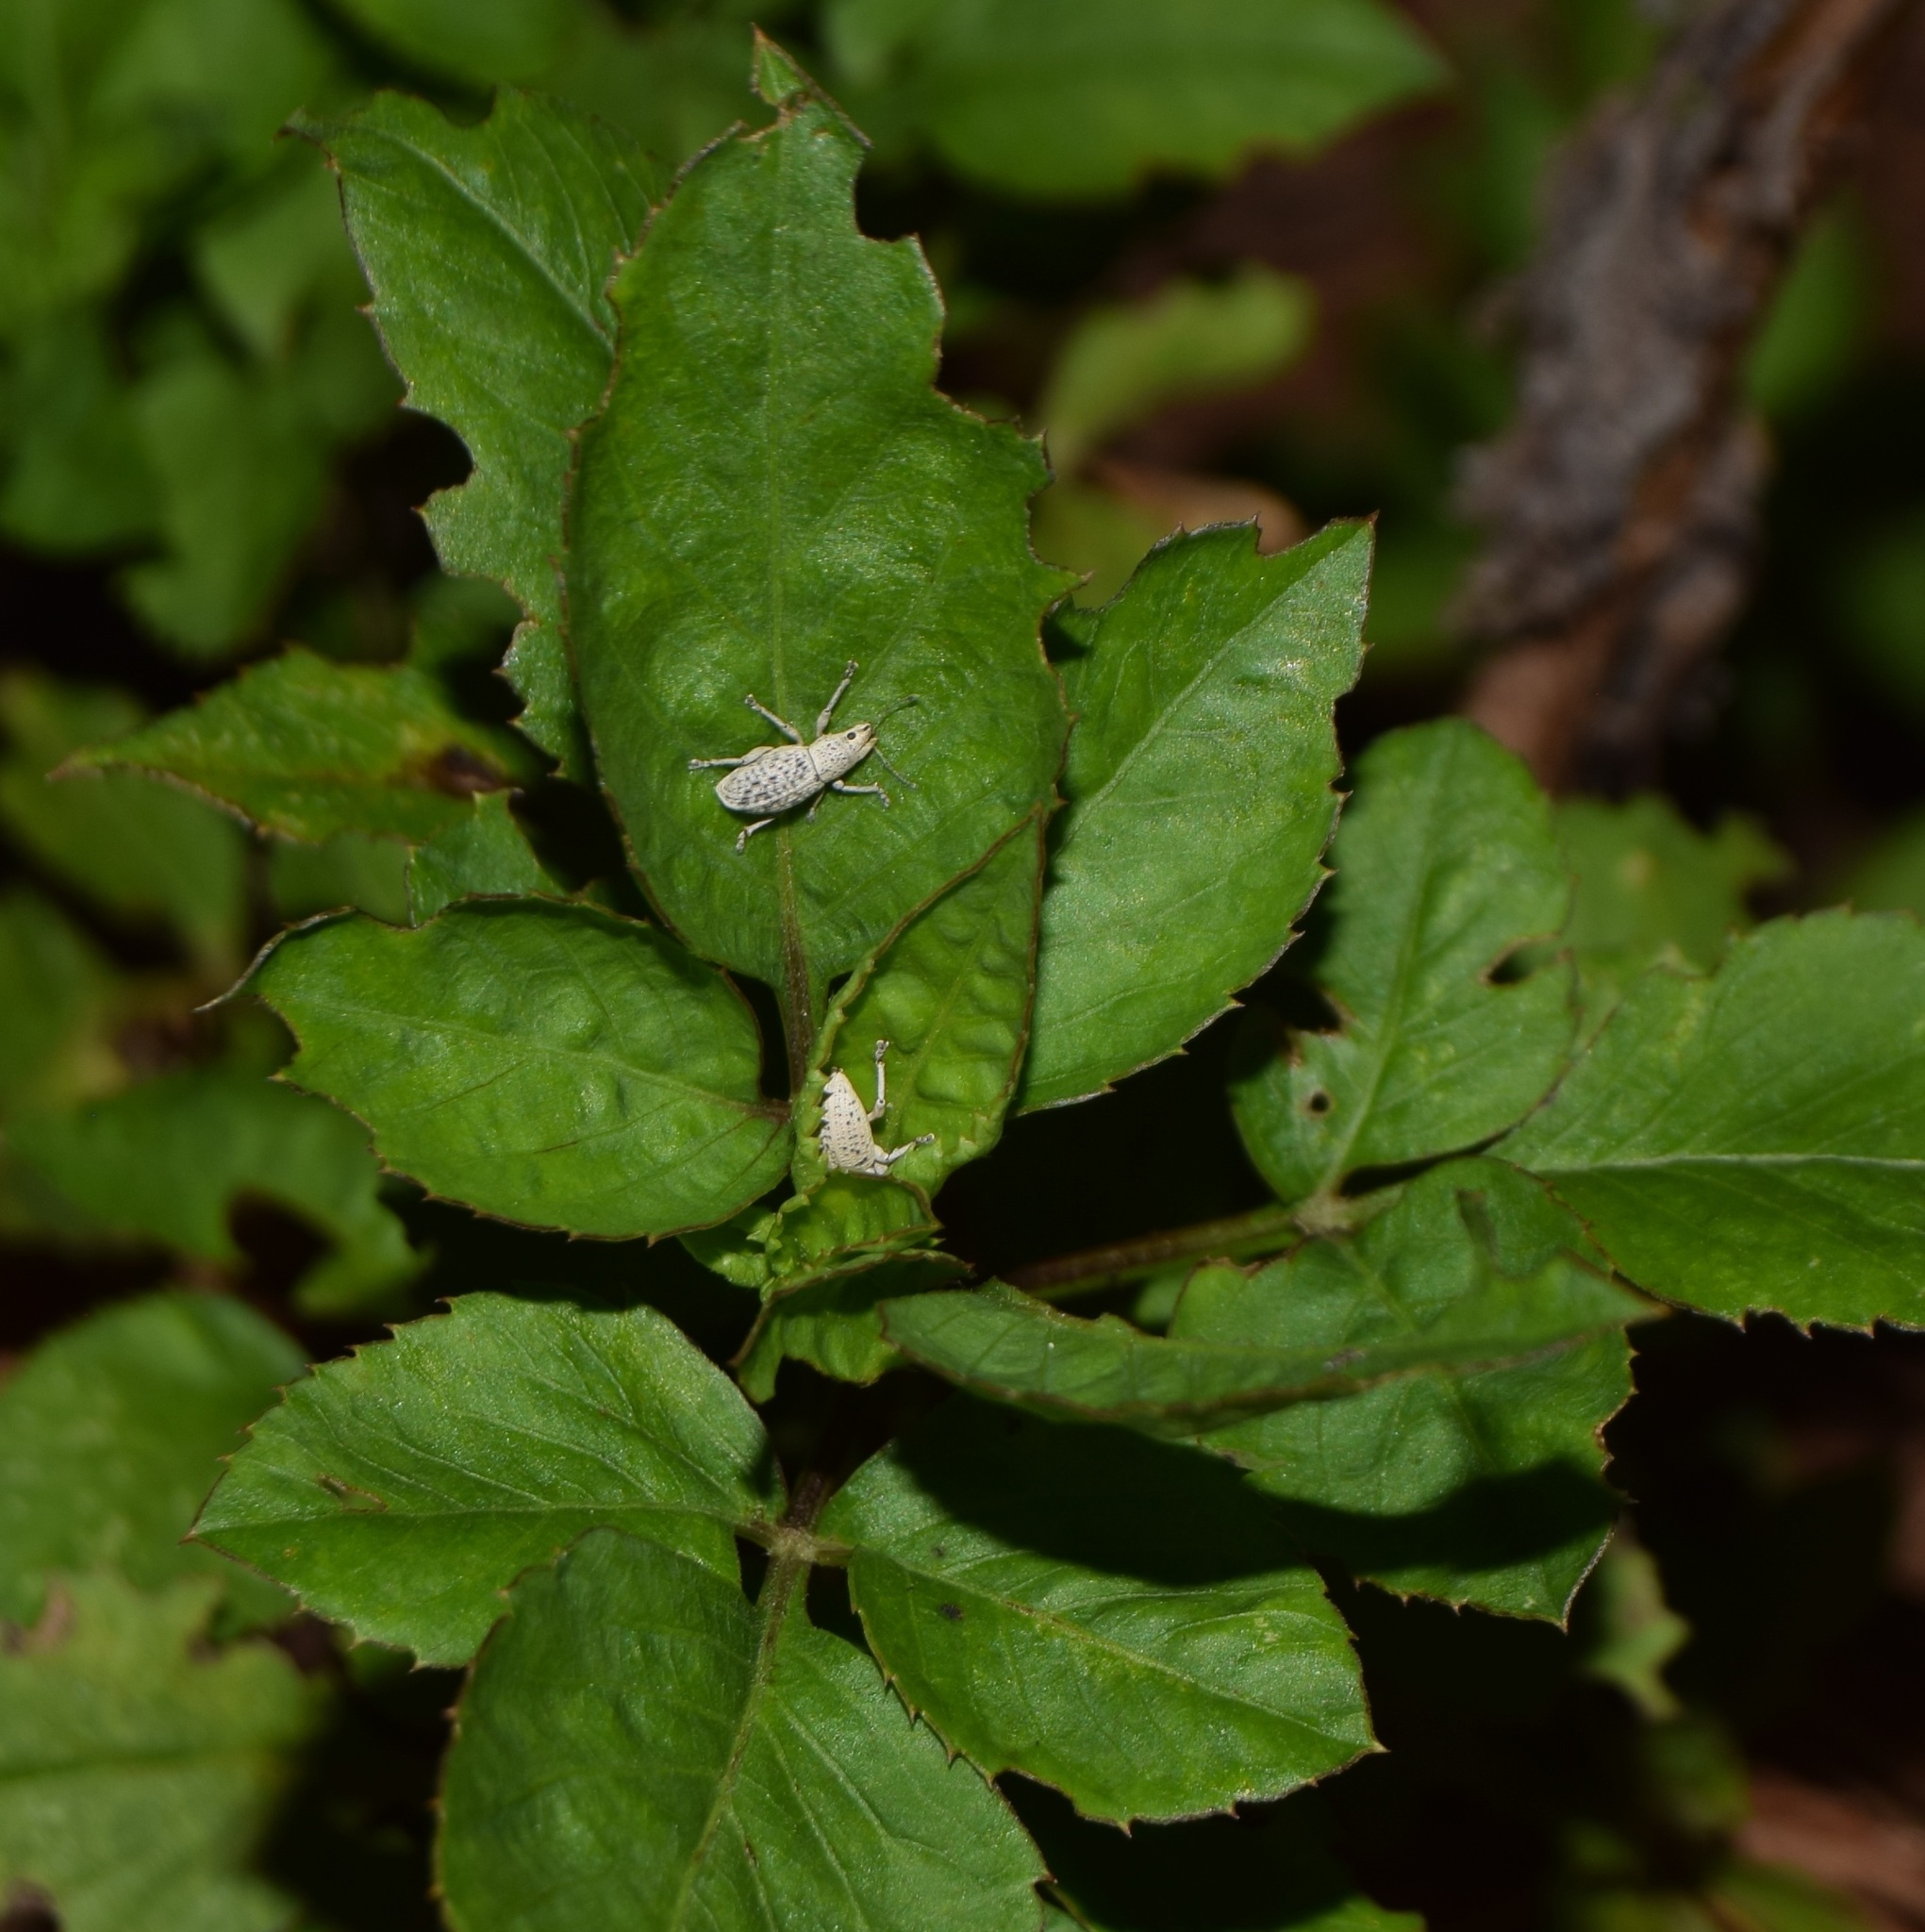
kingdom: Animalia
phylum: Arthropoda
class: Insecta
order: Coleoptera
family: Curculionidae
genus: Artipus
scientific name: Artipus floridanus
